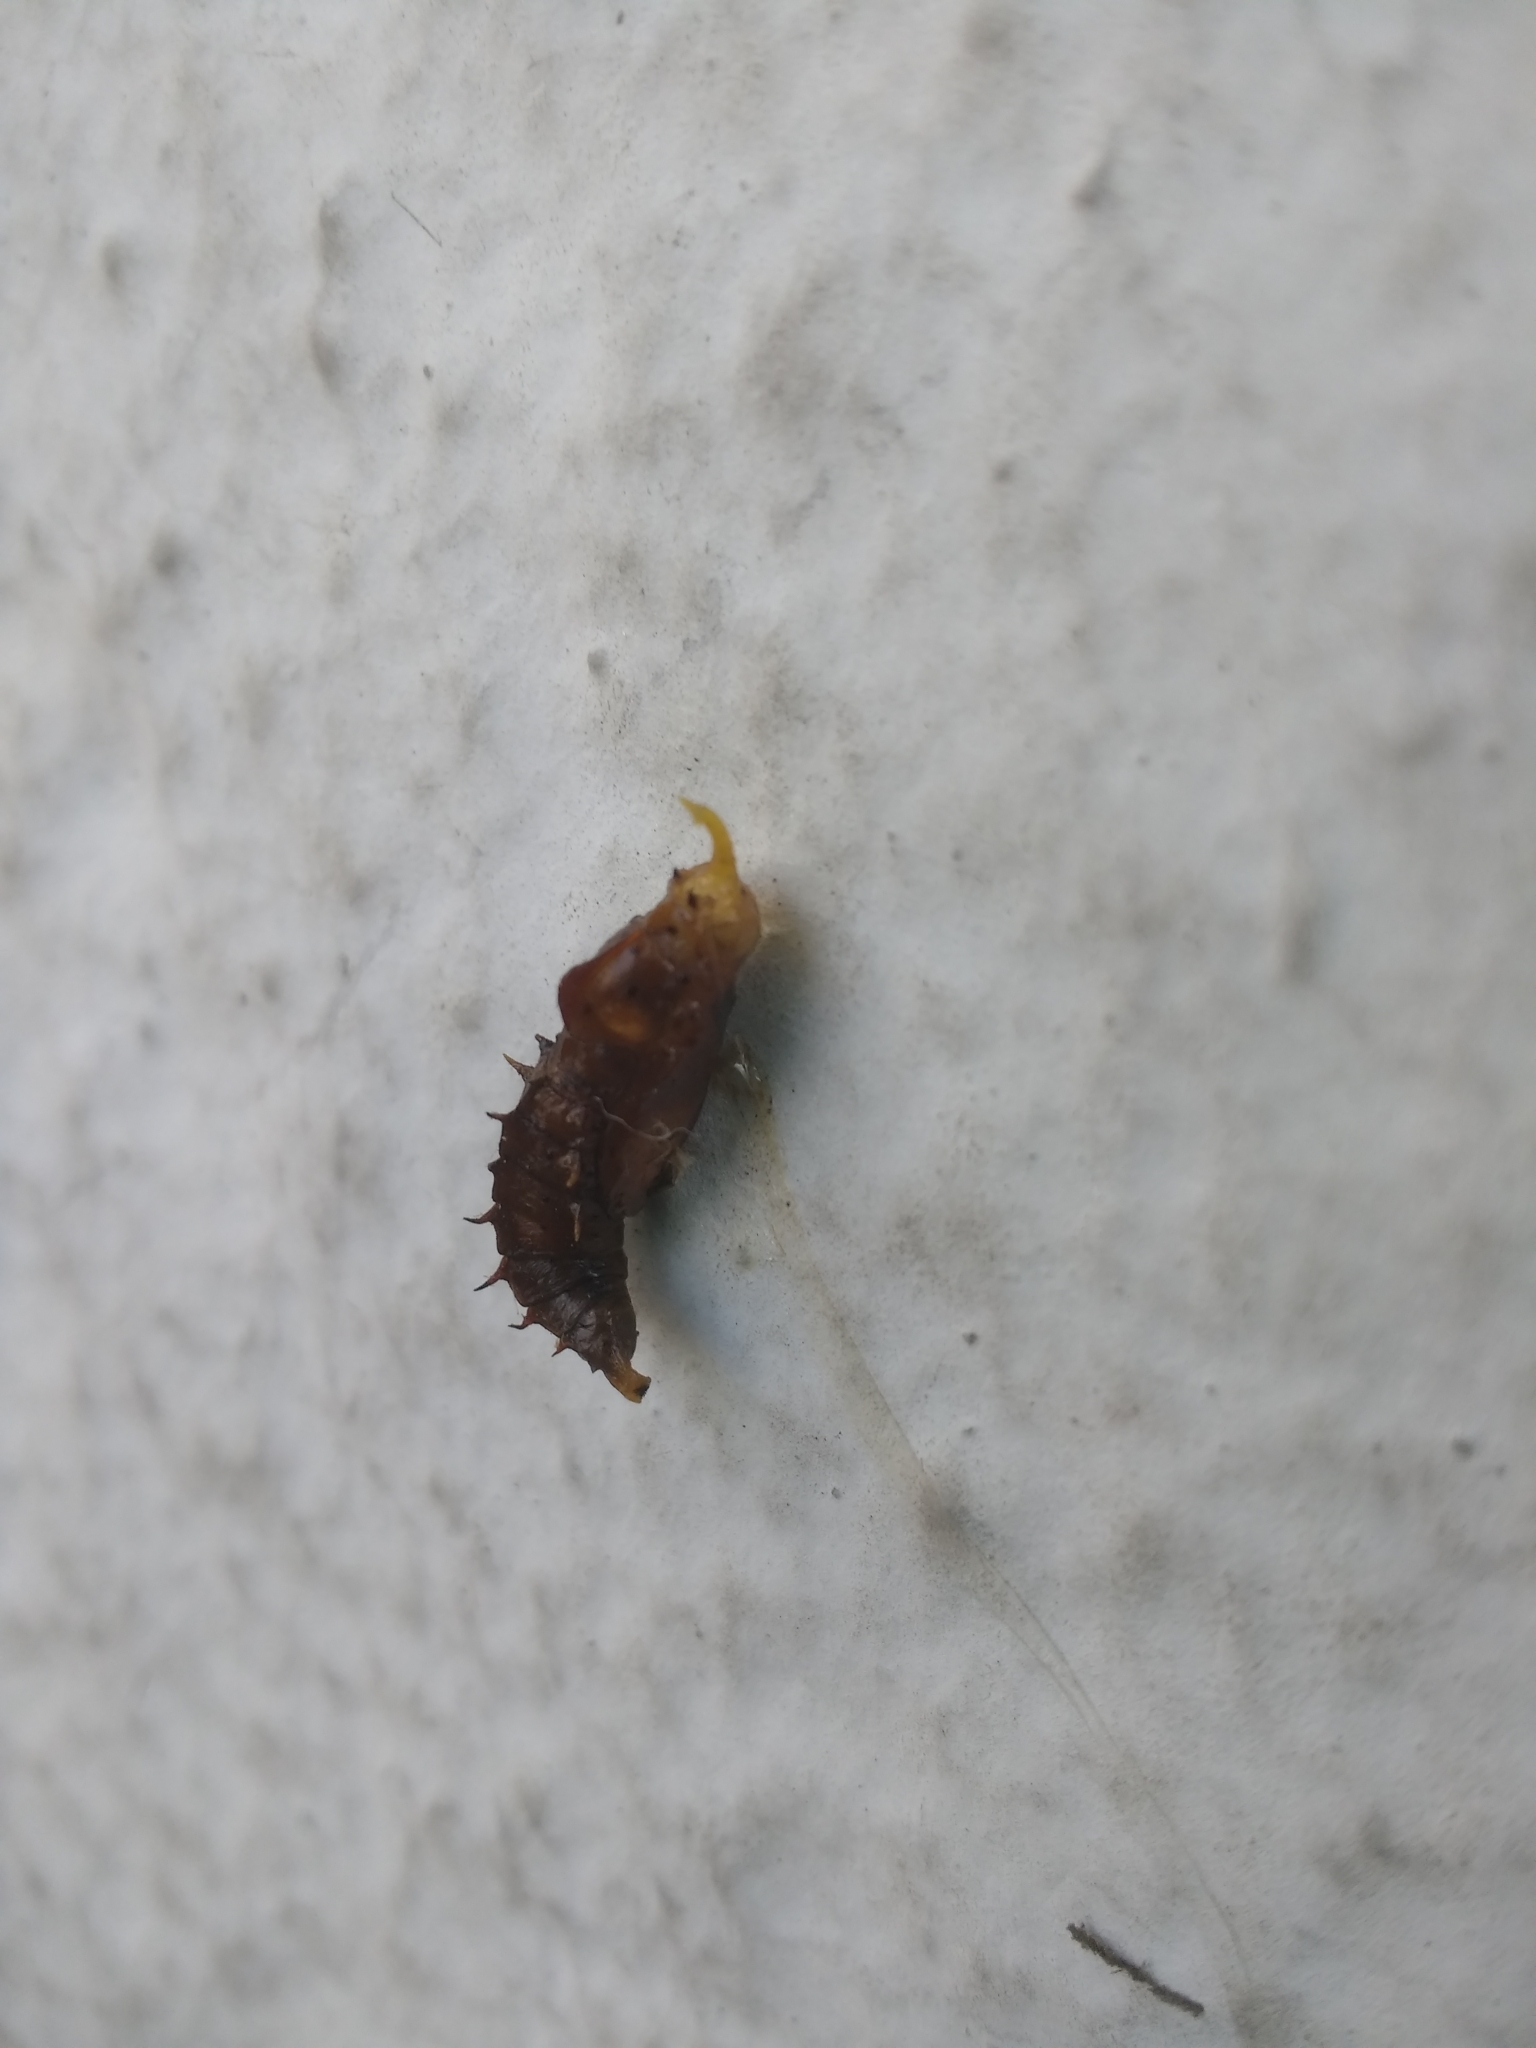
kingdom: Animalia
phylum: Arthropoda
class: Insecta
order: Lepidoptera
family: Pieridae
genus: Leptophobia
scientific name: Leptophobia aripa
